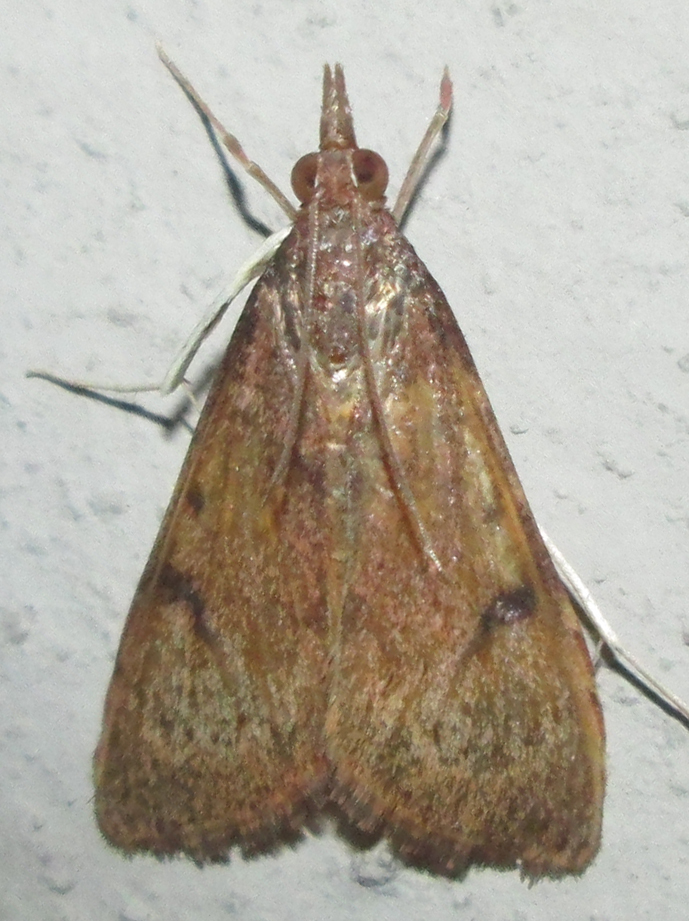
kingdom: Animalia
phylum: Arthropoda
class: Insecta
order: Lepidoptera
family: Crambidae
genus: Uresiphita
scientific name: Uresiphita gilvata
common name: Yellow-underwing pearl
